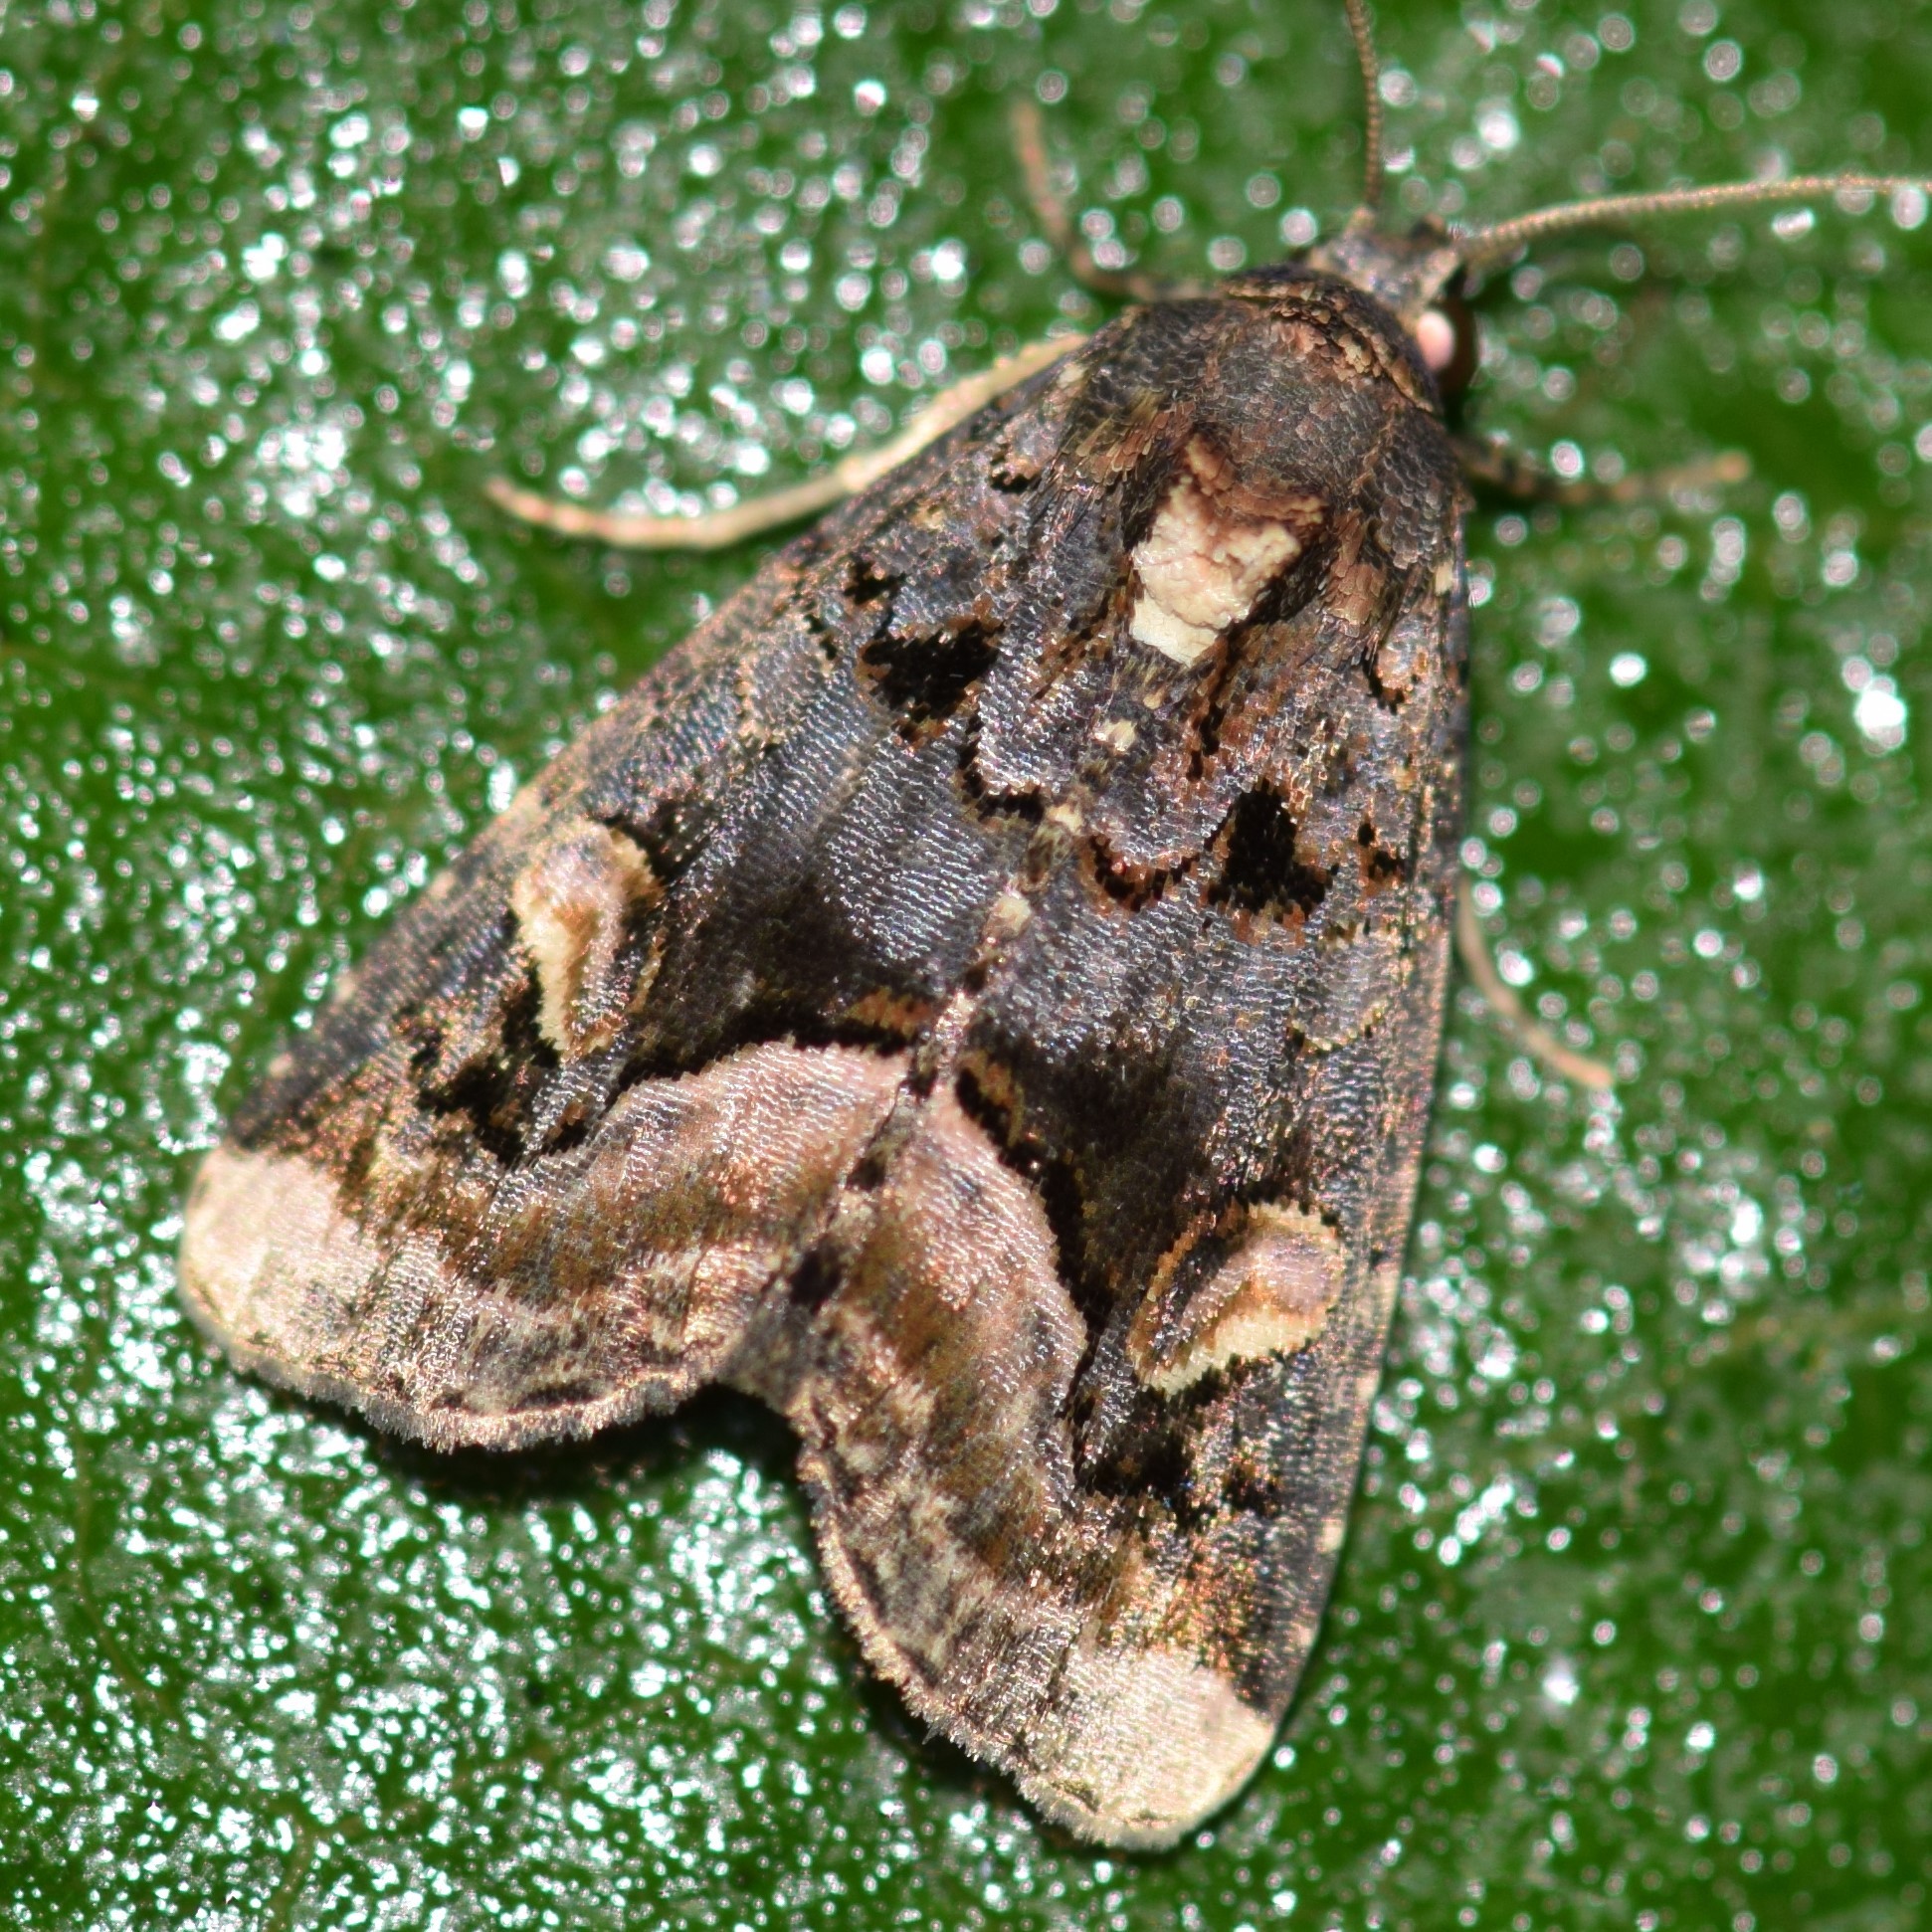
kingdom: Animalia
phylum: Arthropoda
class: Insecta
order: Lepidoptera
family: Noctuidae
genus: Homophoberia
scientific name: Homophoberia apicosa
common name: Black wedge-spot
